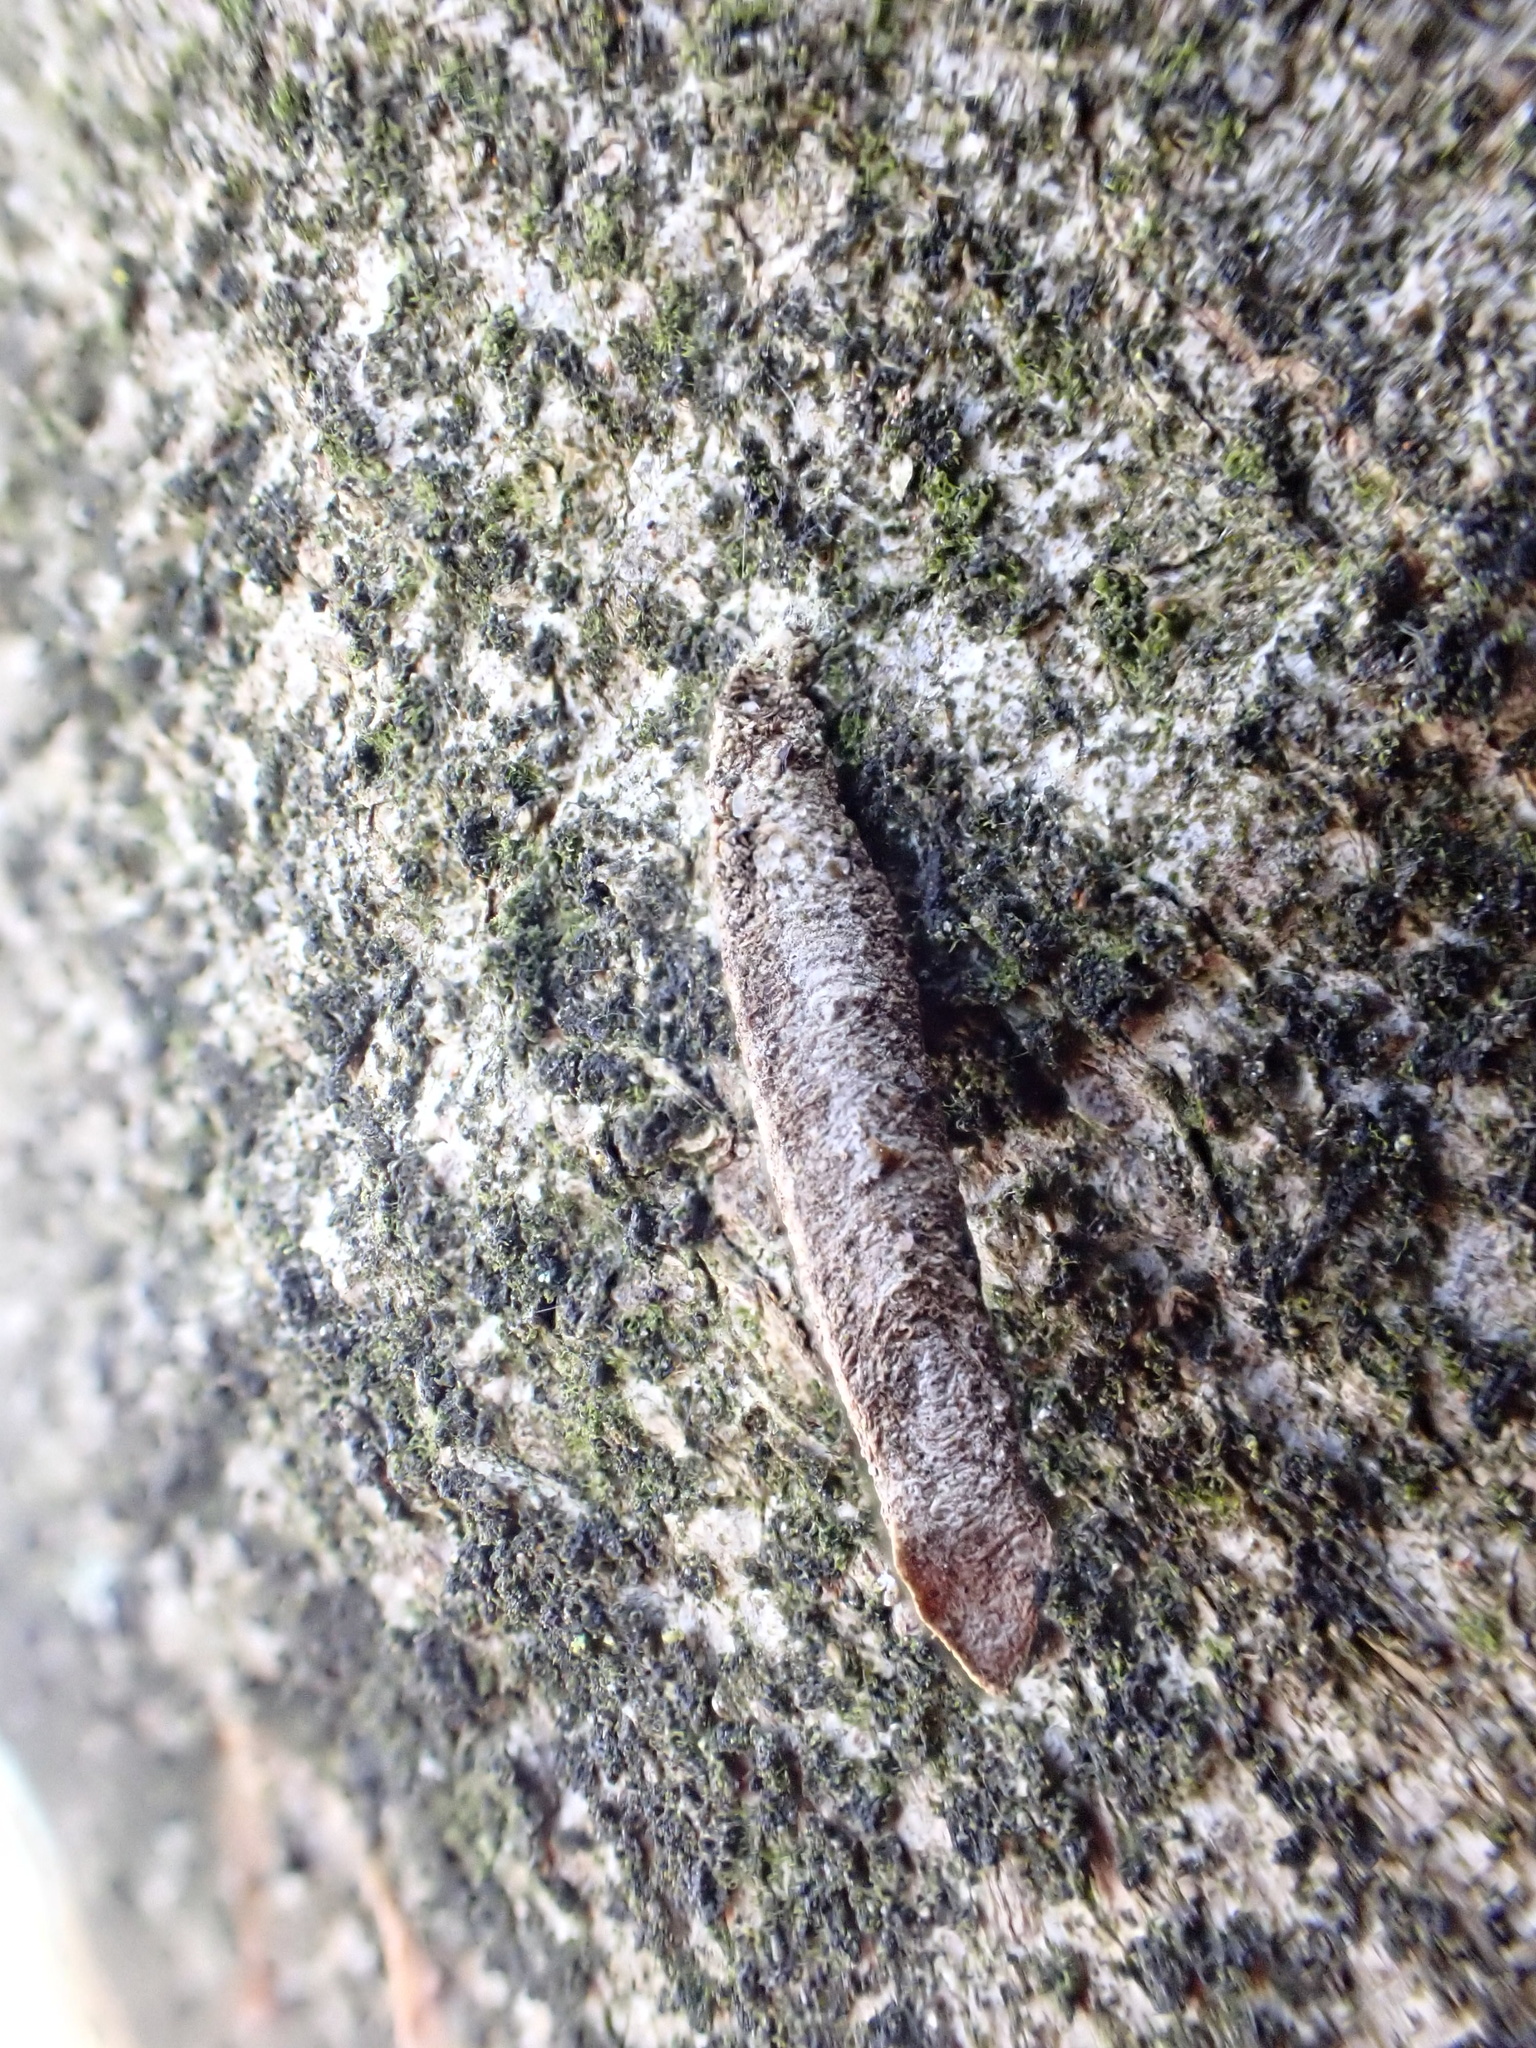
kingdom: Animalia
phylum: Arthropoda
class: Insecta
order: Lepidoptera
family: Psychidae
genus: Taleporia
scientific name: Taleporia tubulosa
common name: Brown smoke
